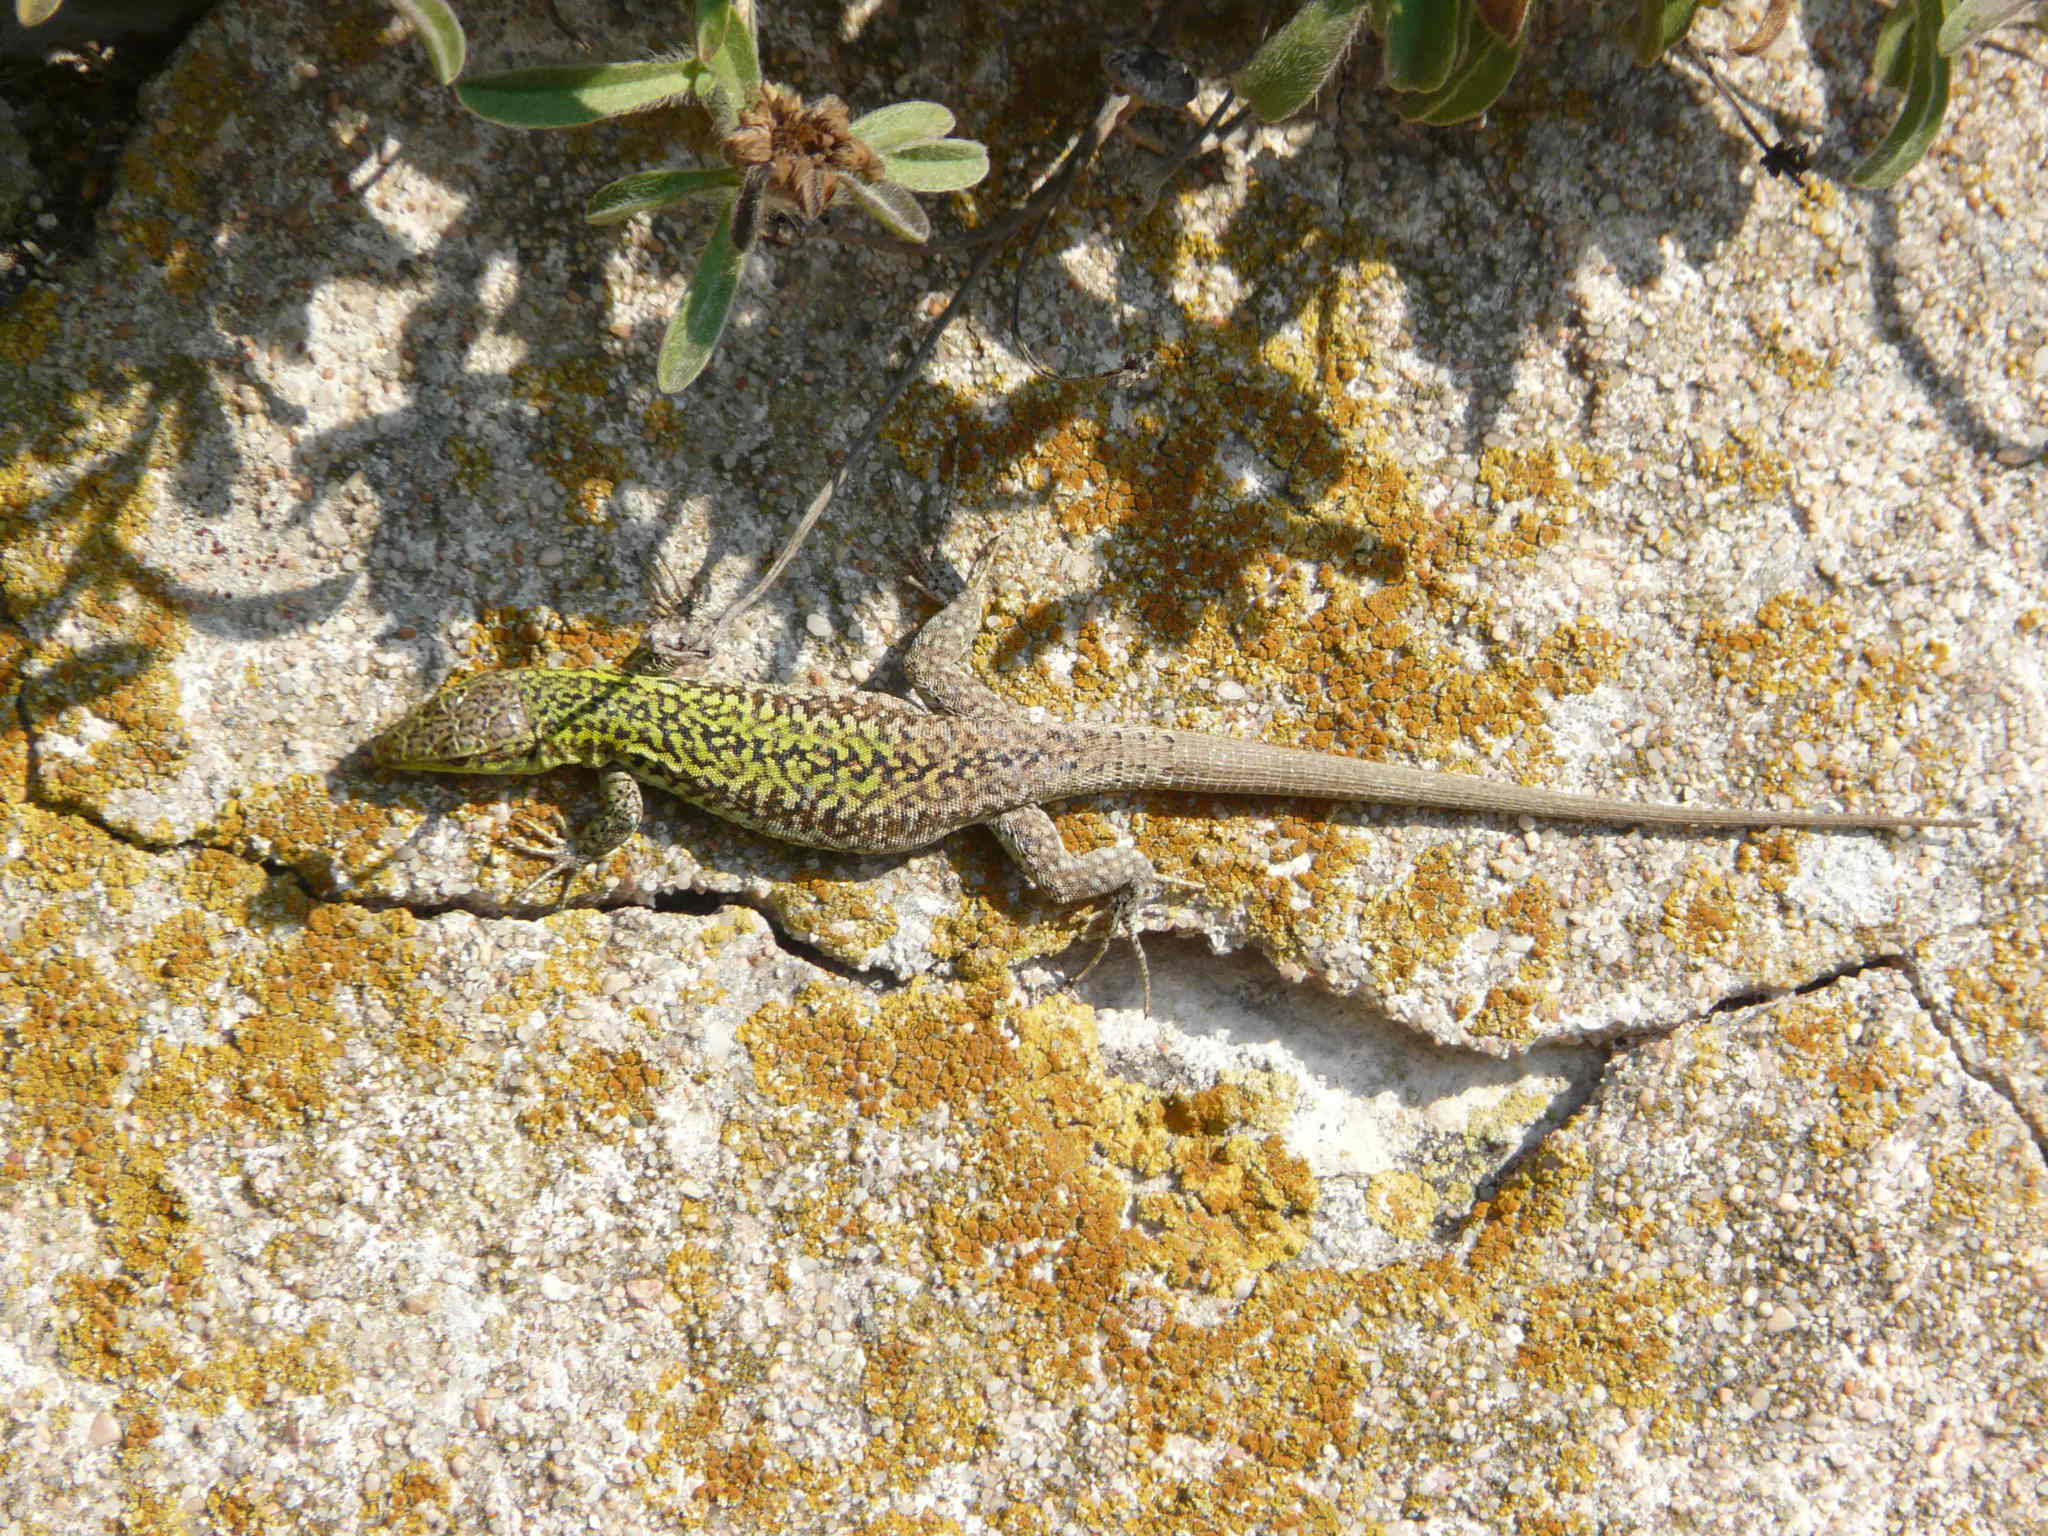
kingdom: Animalia
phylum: Chordata
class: Squamata
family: Lacertidae
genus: Podarcis
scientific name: Podarcis siculus
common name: Italian wall lizard
